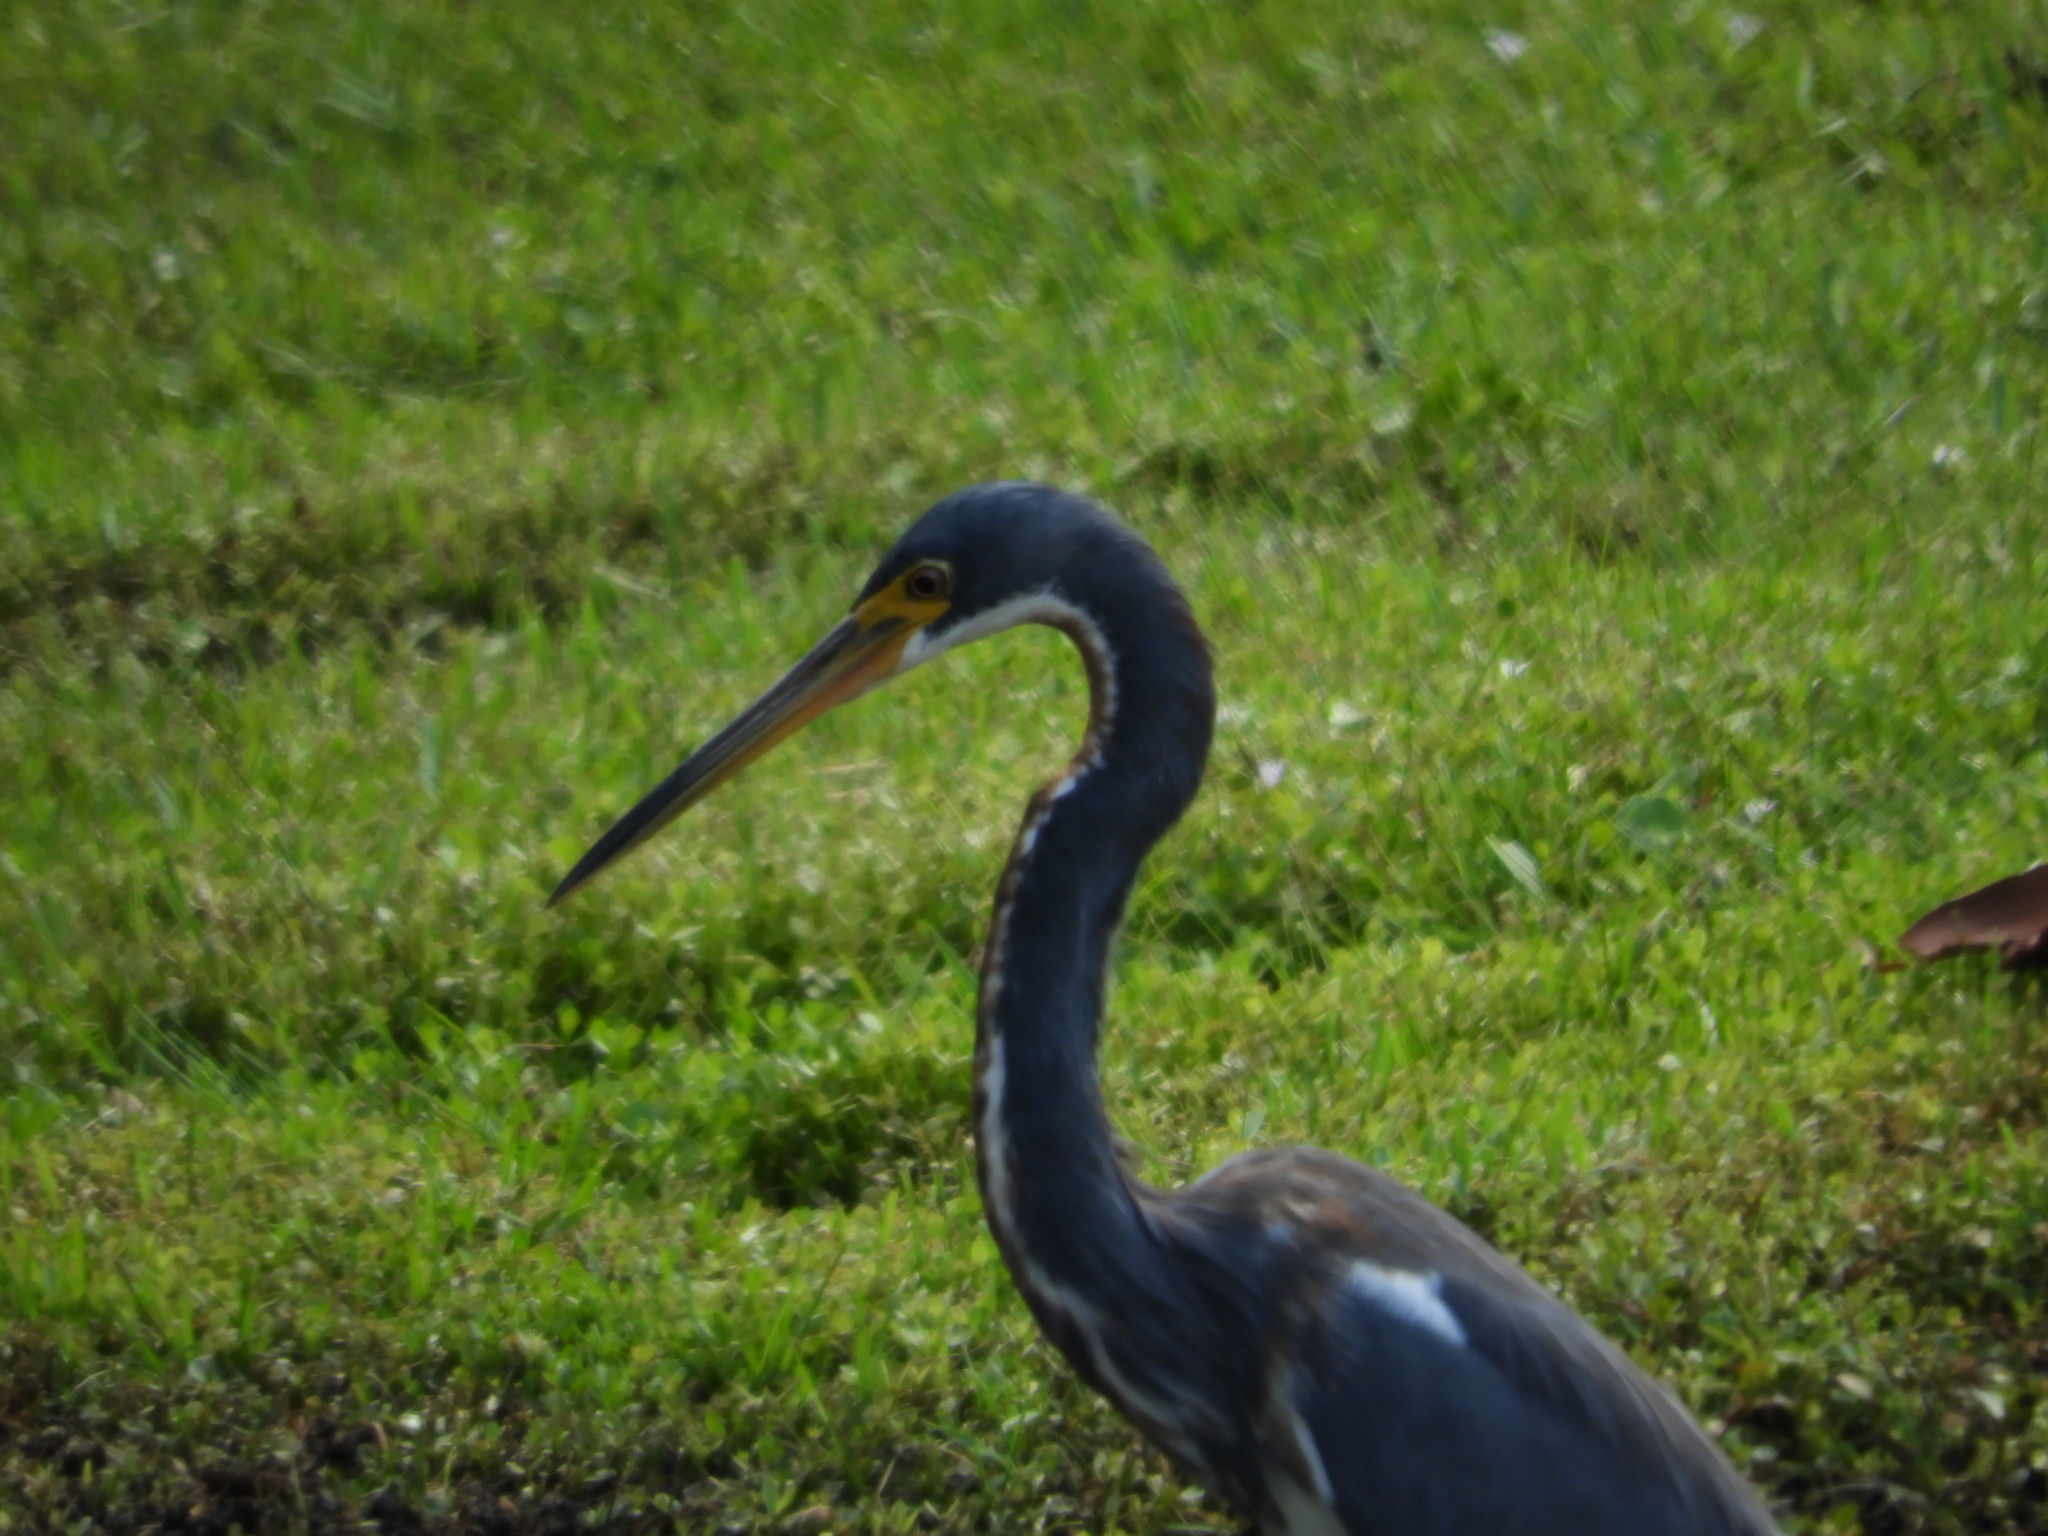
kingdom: Animalia
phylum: Chordata
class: Aves
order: Pelecaniformes
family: Ardeidae
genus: Egretta
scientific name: Egretta tricolor
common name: Tricolored heron
